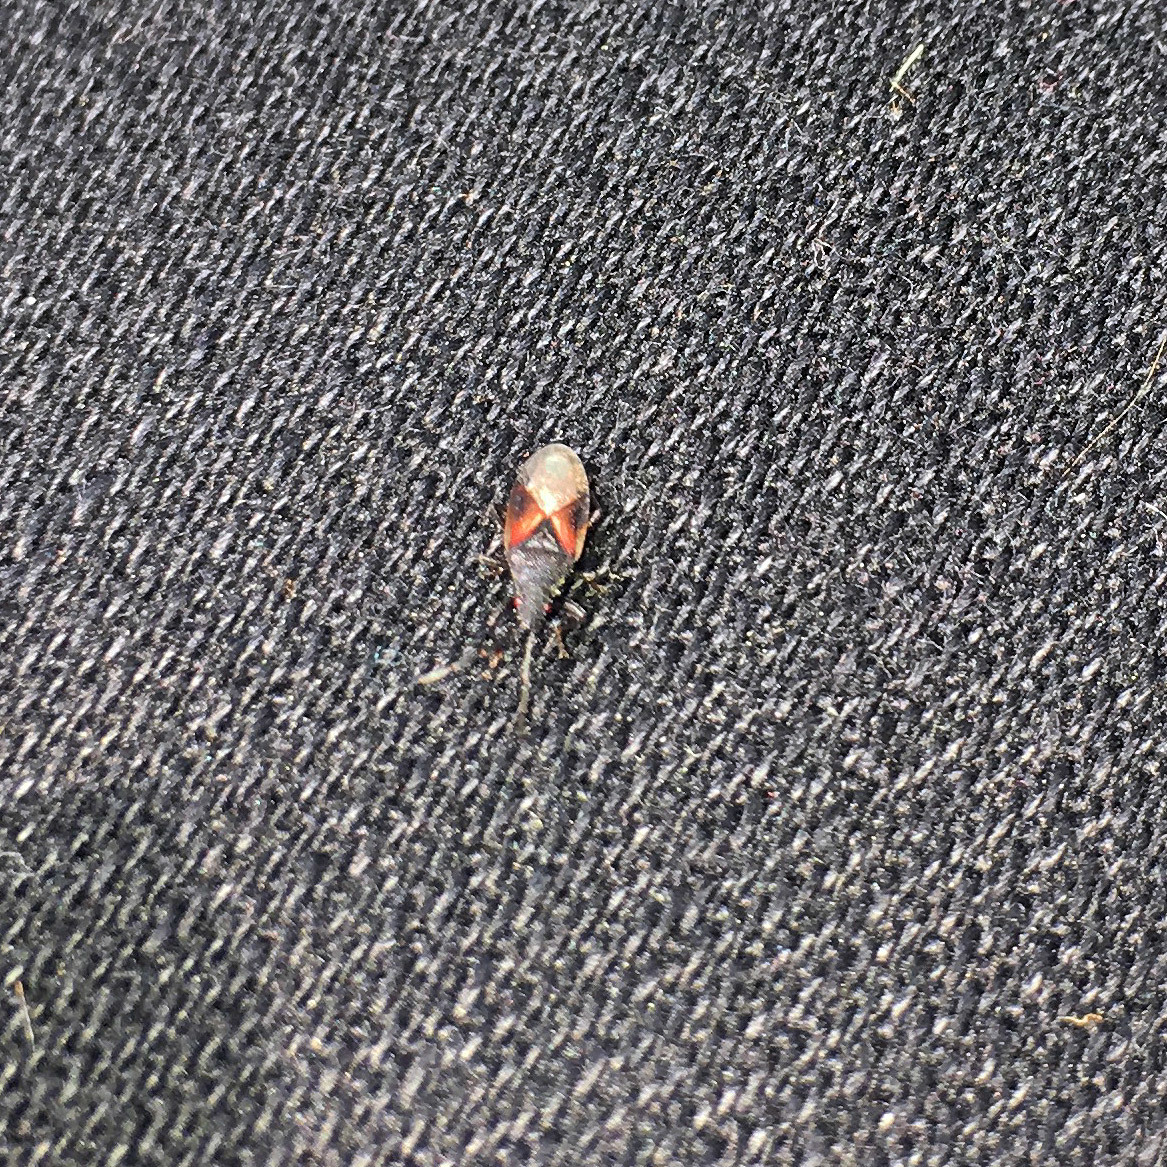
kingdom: Animalia
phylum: Arthropoda
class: Insecta
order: Hemiptera
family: Oxycarenidae
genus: Oxycarenus
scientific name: Oxycarenus lavaterae
